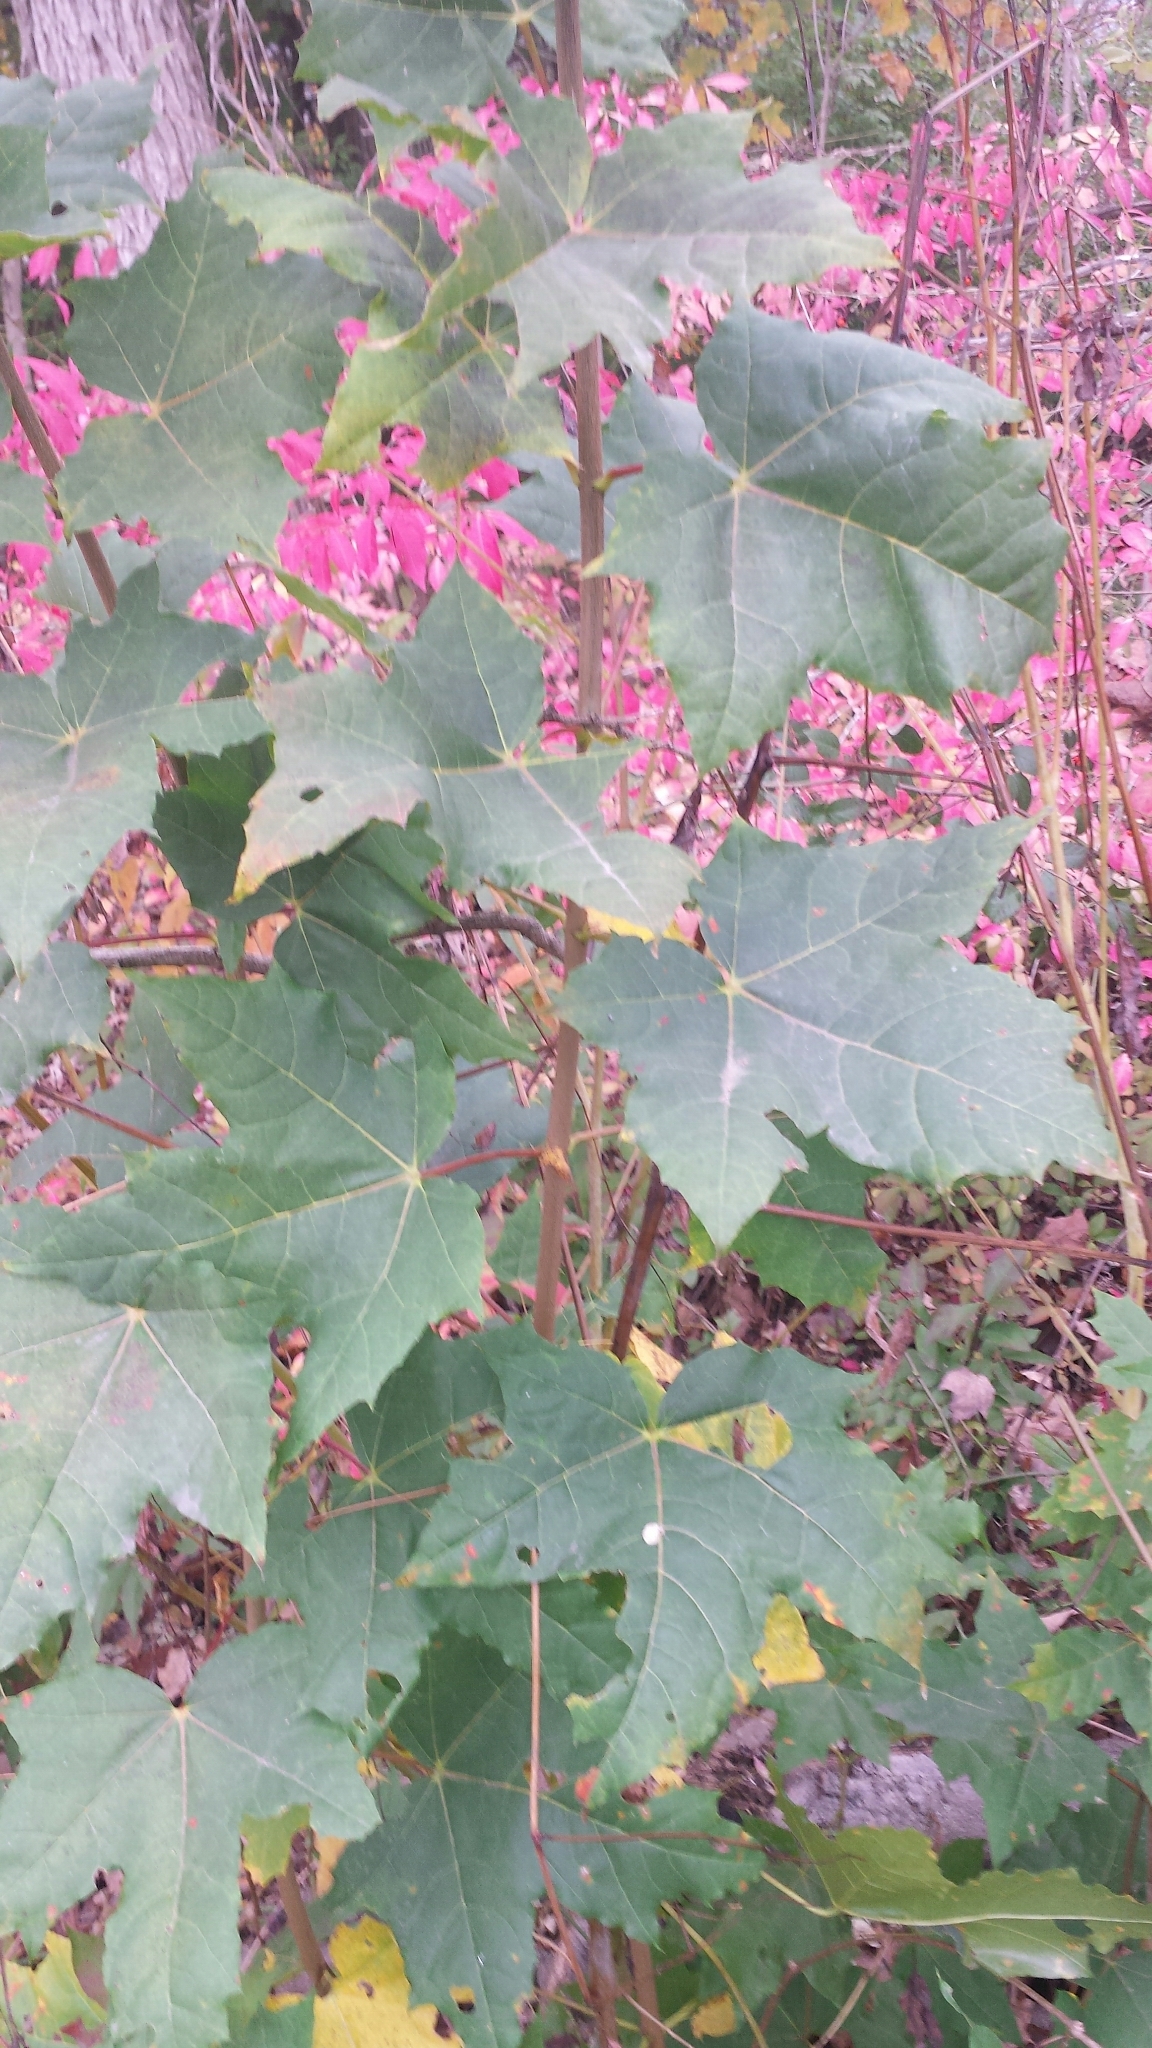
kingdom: Plantae
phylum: Tracheophyta
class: Magnoliopsida
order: Sapindales
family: Sapindaceae
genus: Acer
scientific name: Acer platanoides
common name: Norway maple
